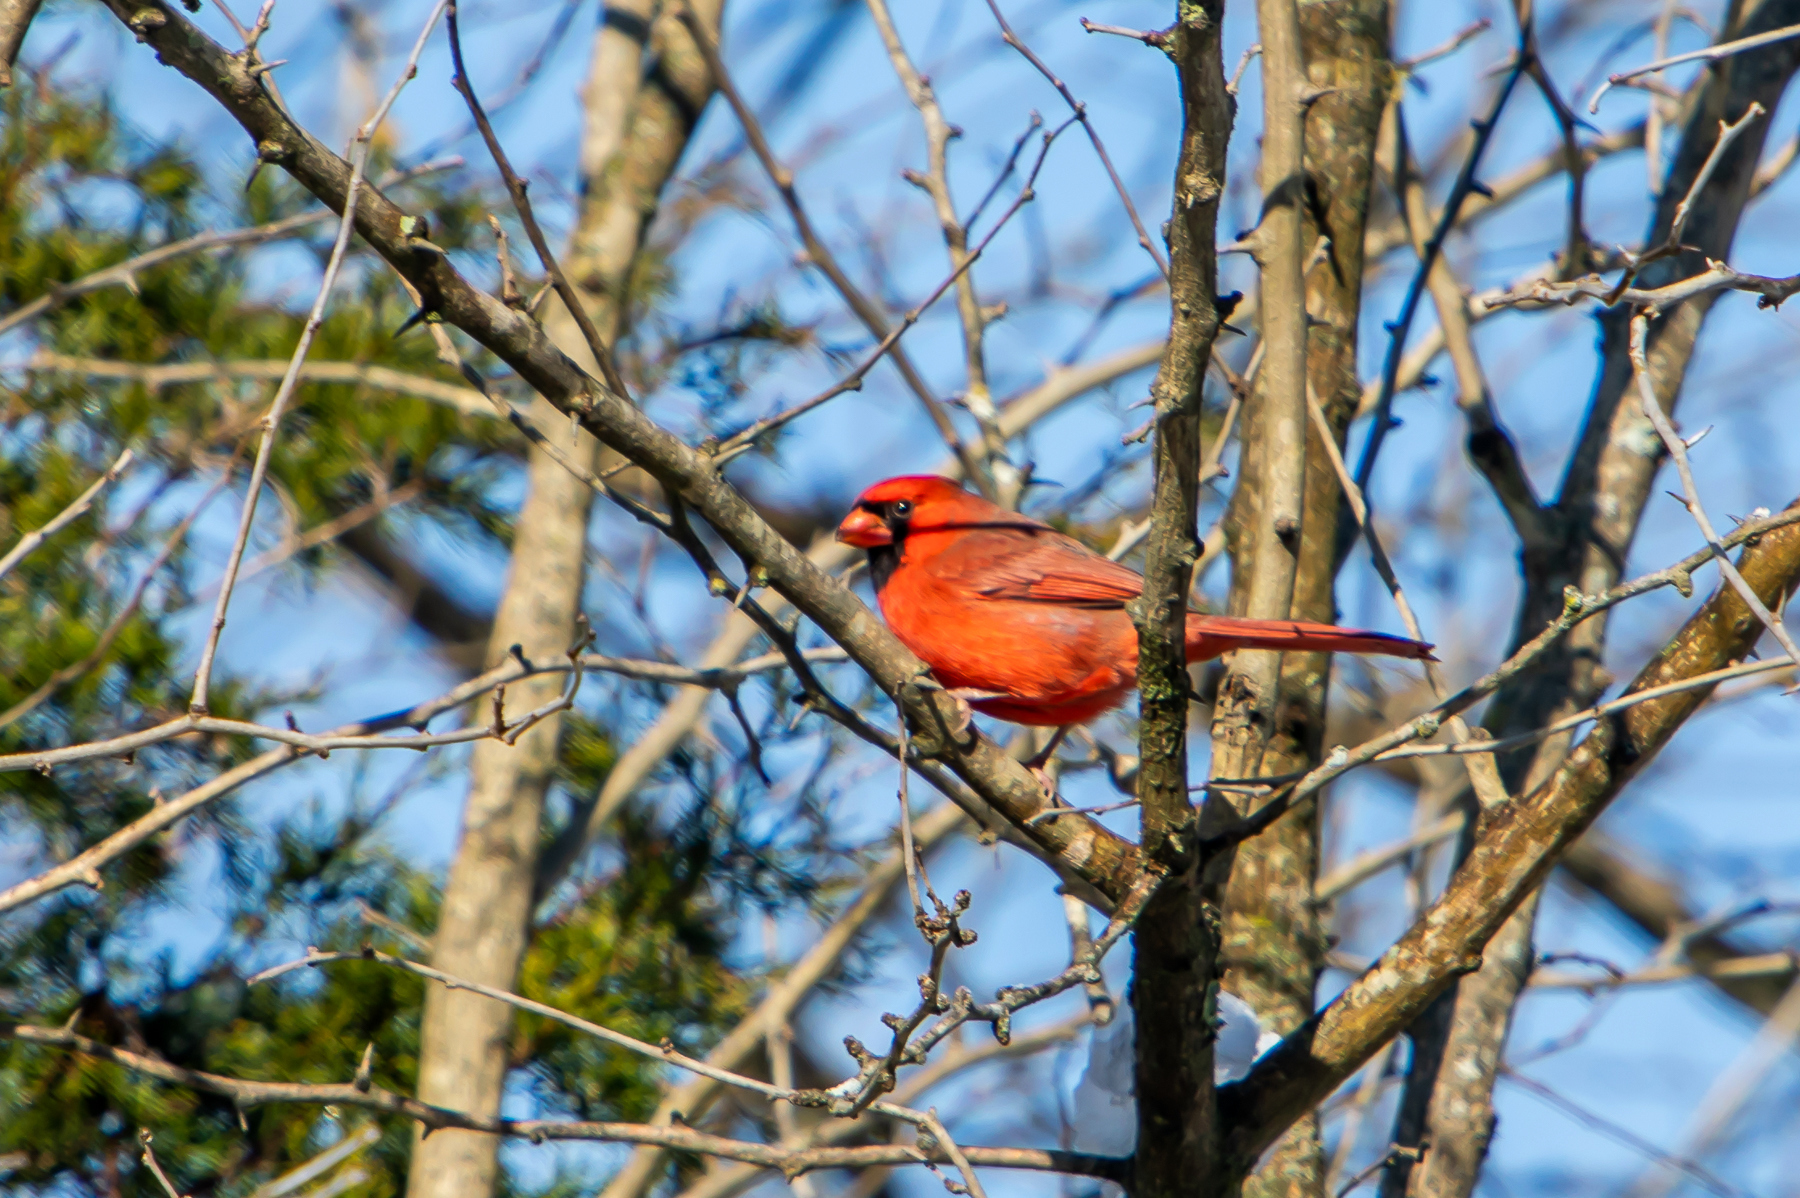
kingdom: Animalia
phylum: Chordata
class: Aves
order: Passeriformes
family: Cardinalidae
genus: Cardinalis
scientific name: Cardinalis cardinalis
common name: Northern cardinal
